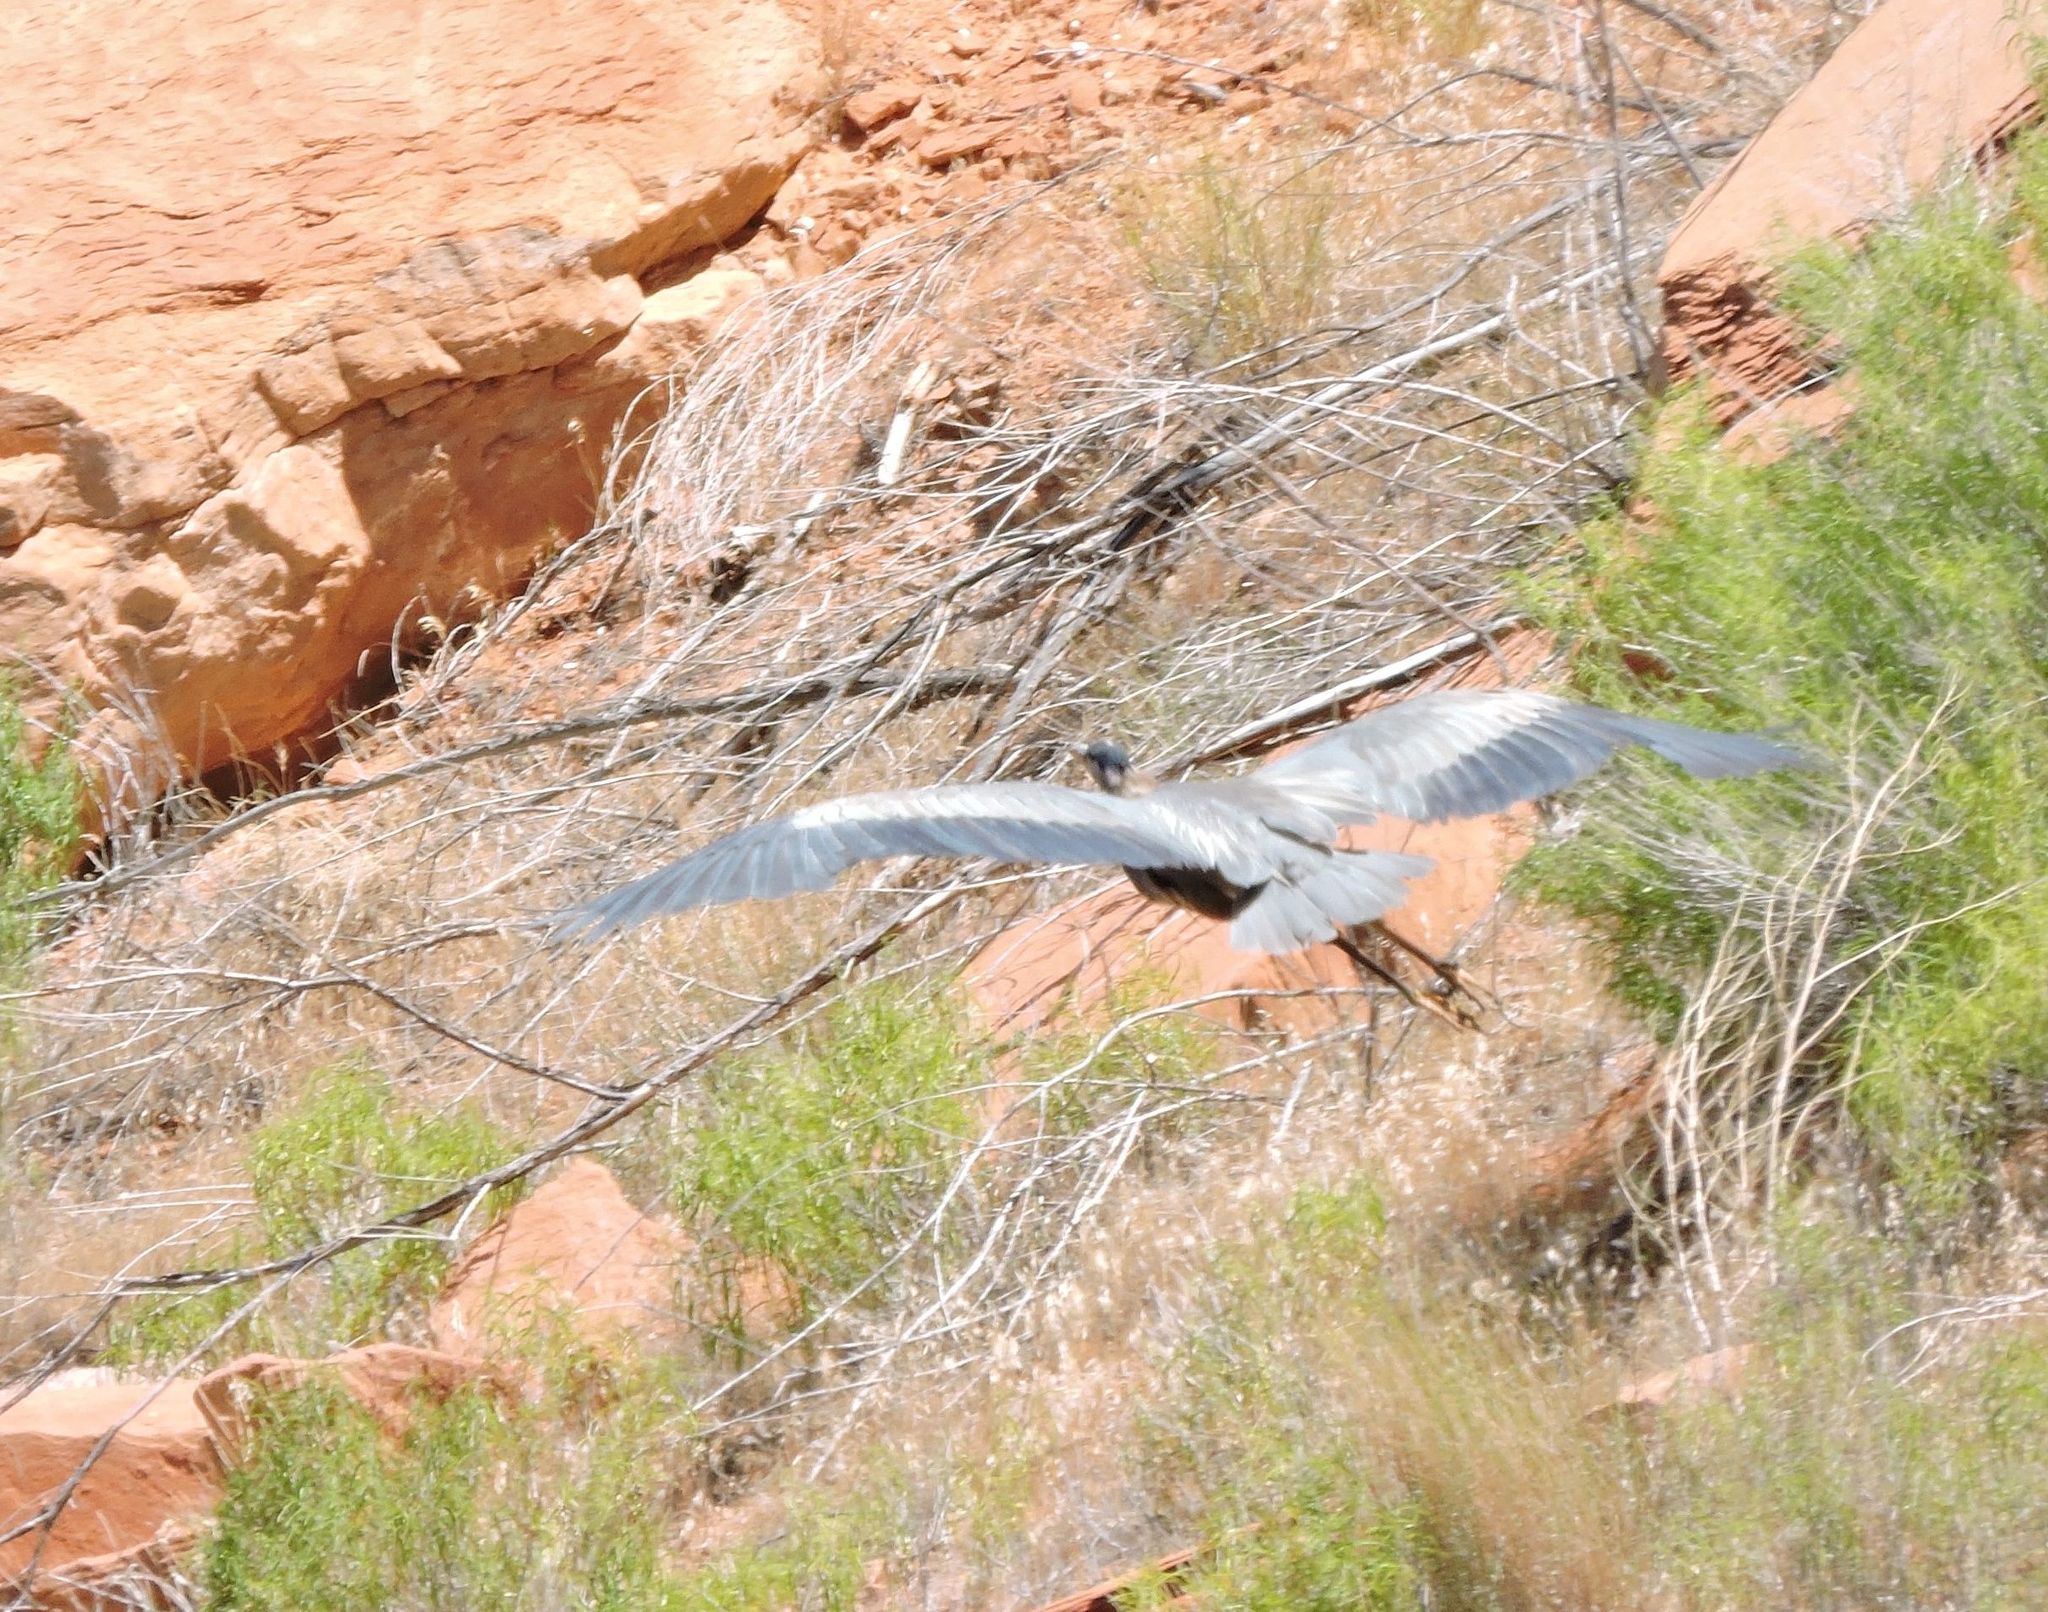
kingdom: Animalia
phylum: Chordata
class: Aves
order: Pelecaniformes
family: Ardeidae
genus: Ardea
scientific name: Ardea herodias
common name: Great blue heron
